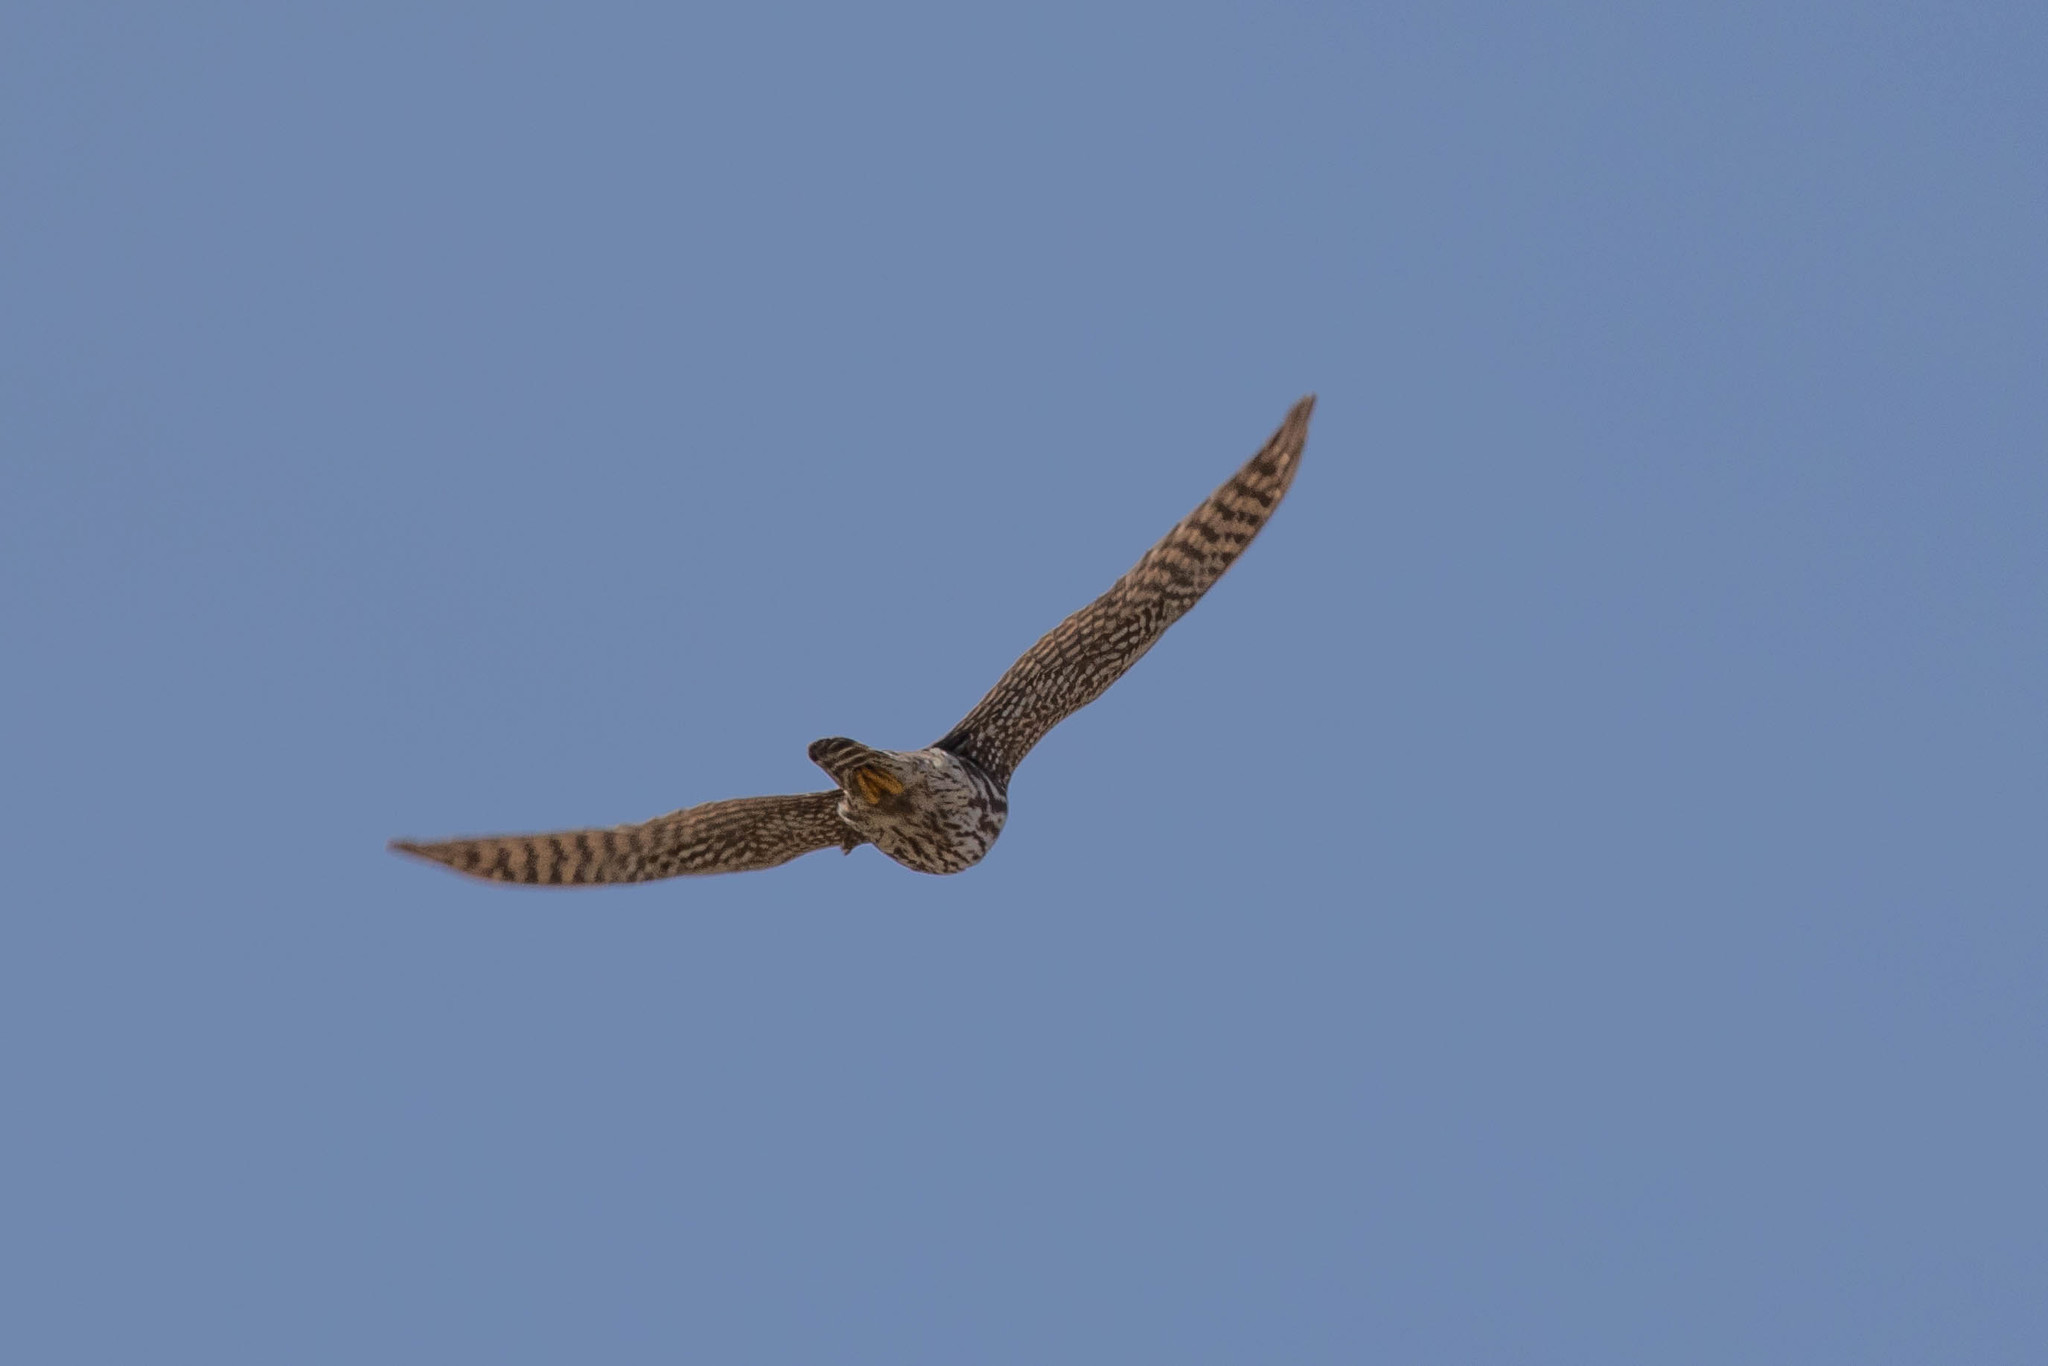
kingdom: Animalia
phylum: Chordata
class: Aves
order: Falconiformes
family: Falconidae
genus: Falco
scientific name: Falco columbarius
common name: Merlin
